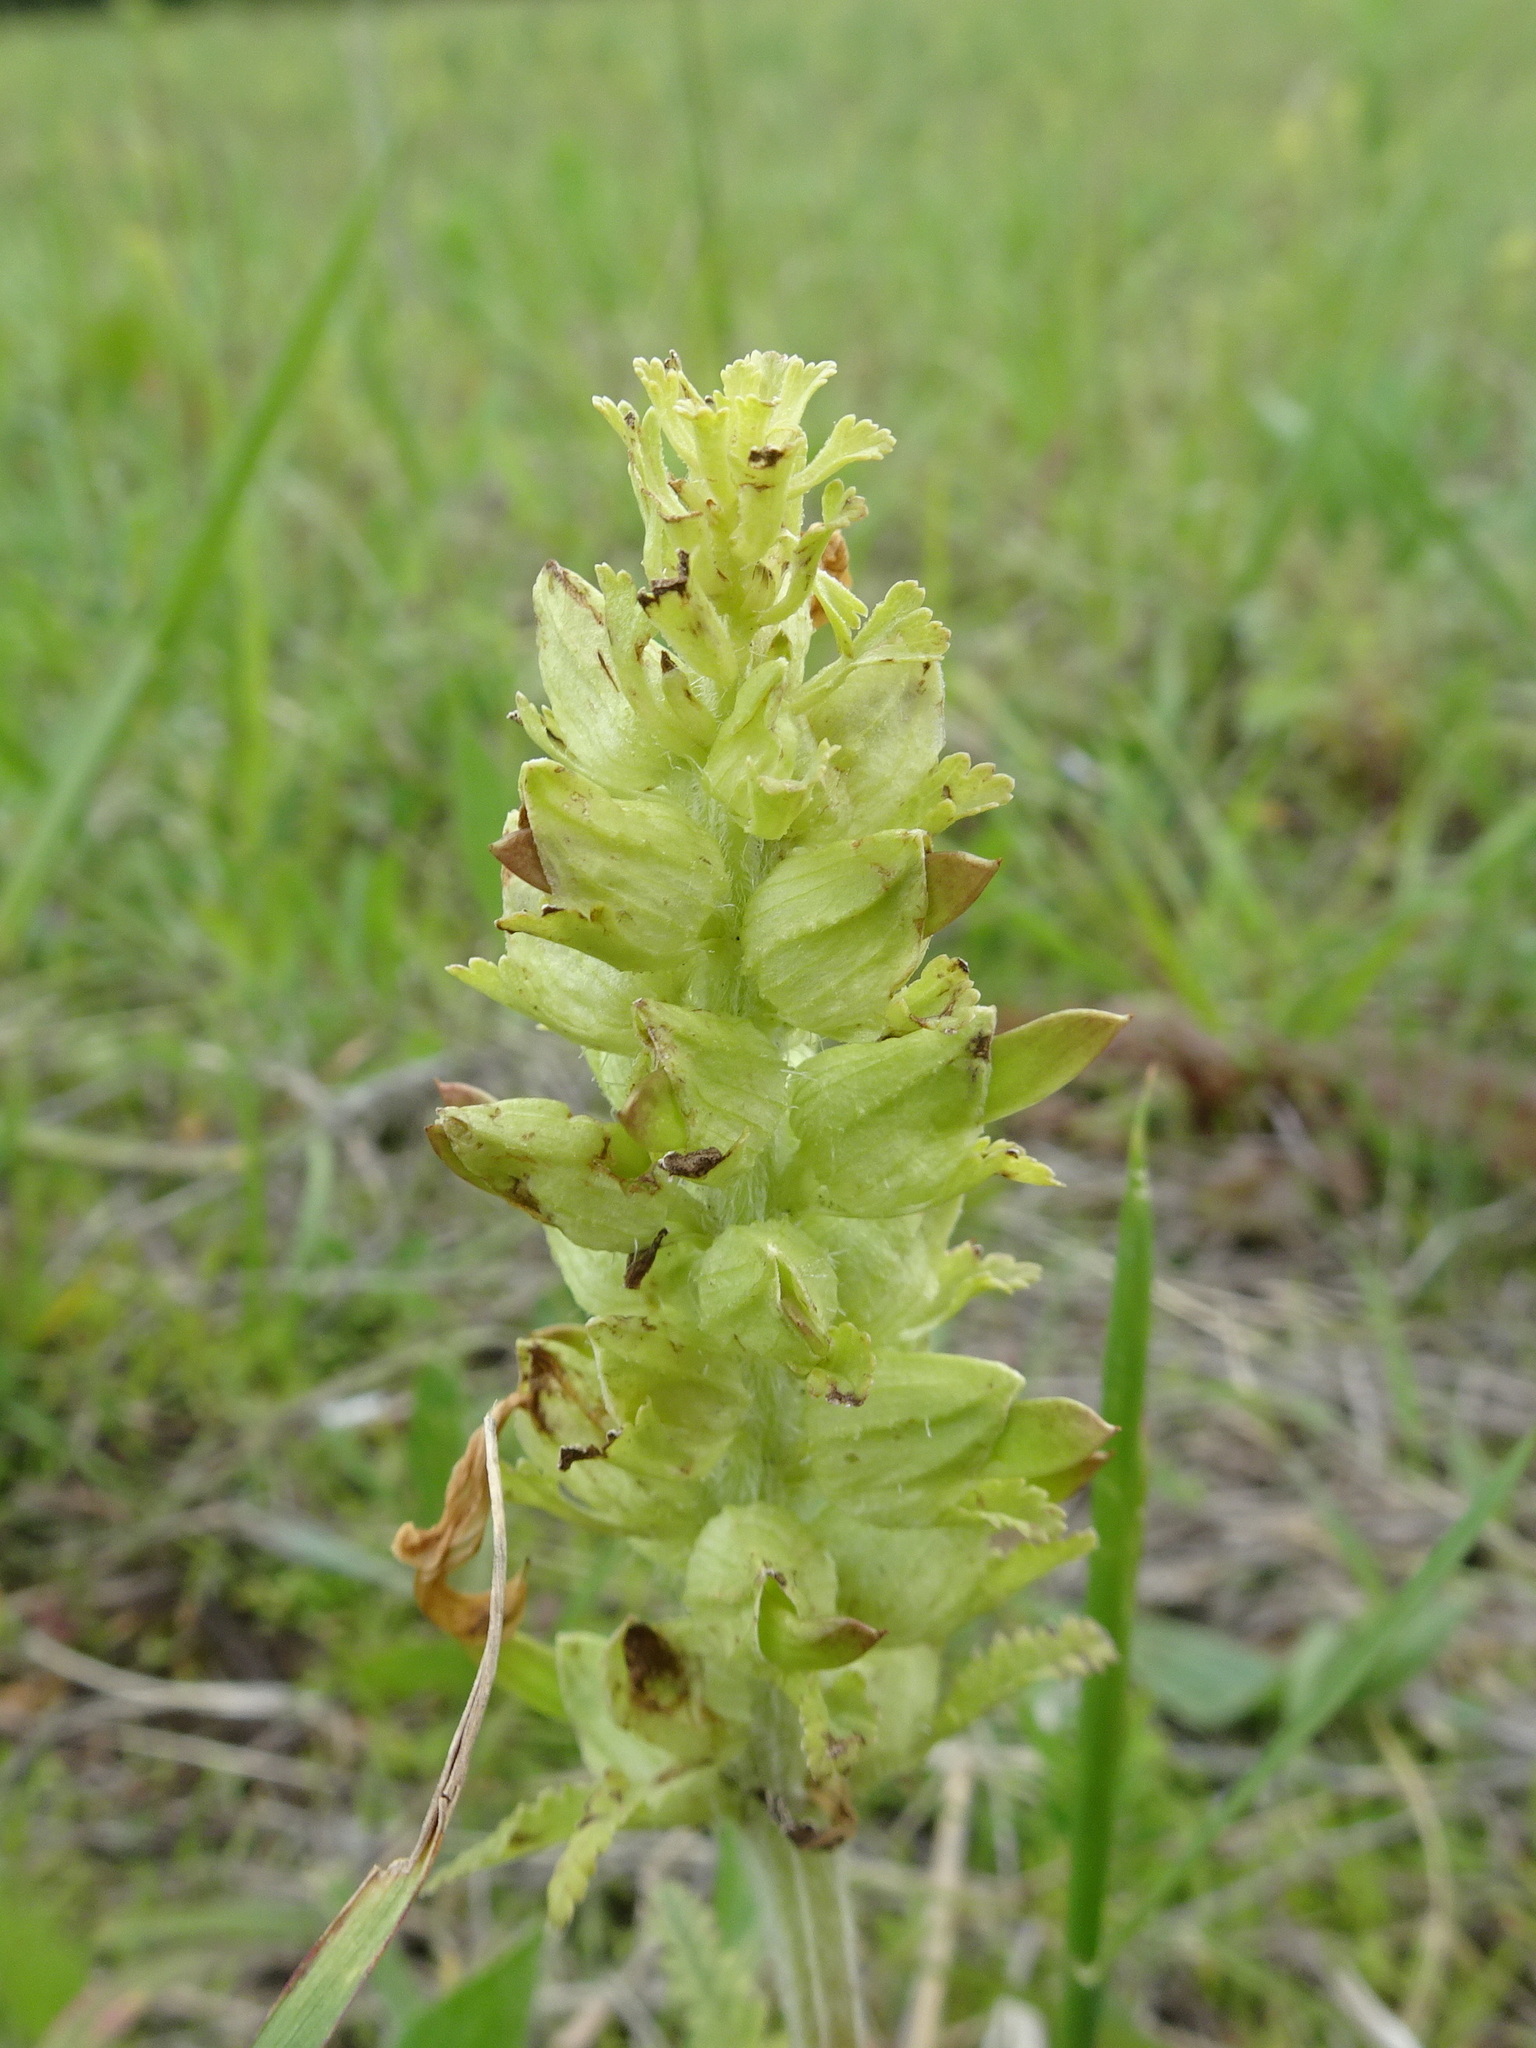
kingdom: Plantae
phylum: Tracheophyta
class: Magnoliopsida
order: Lamiales
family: Orobanchaceae
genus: Pedicularis
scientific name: Pedicularis canadensis
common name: Early lousewort
